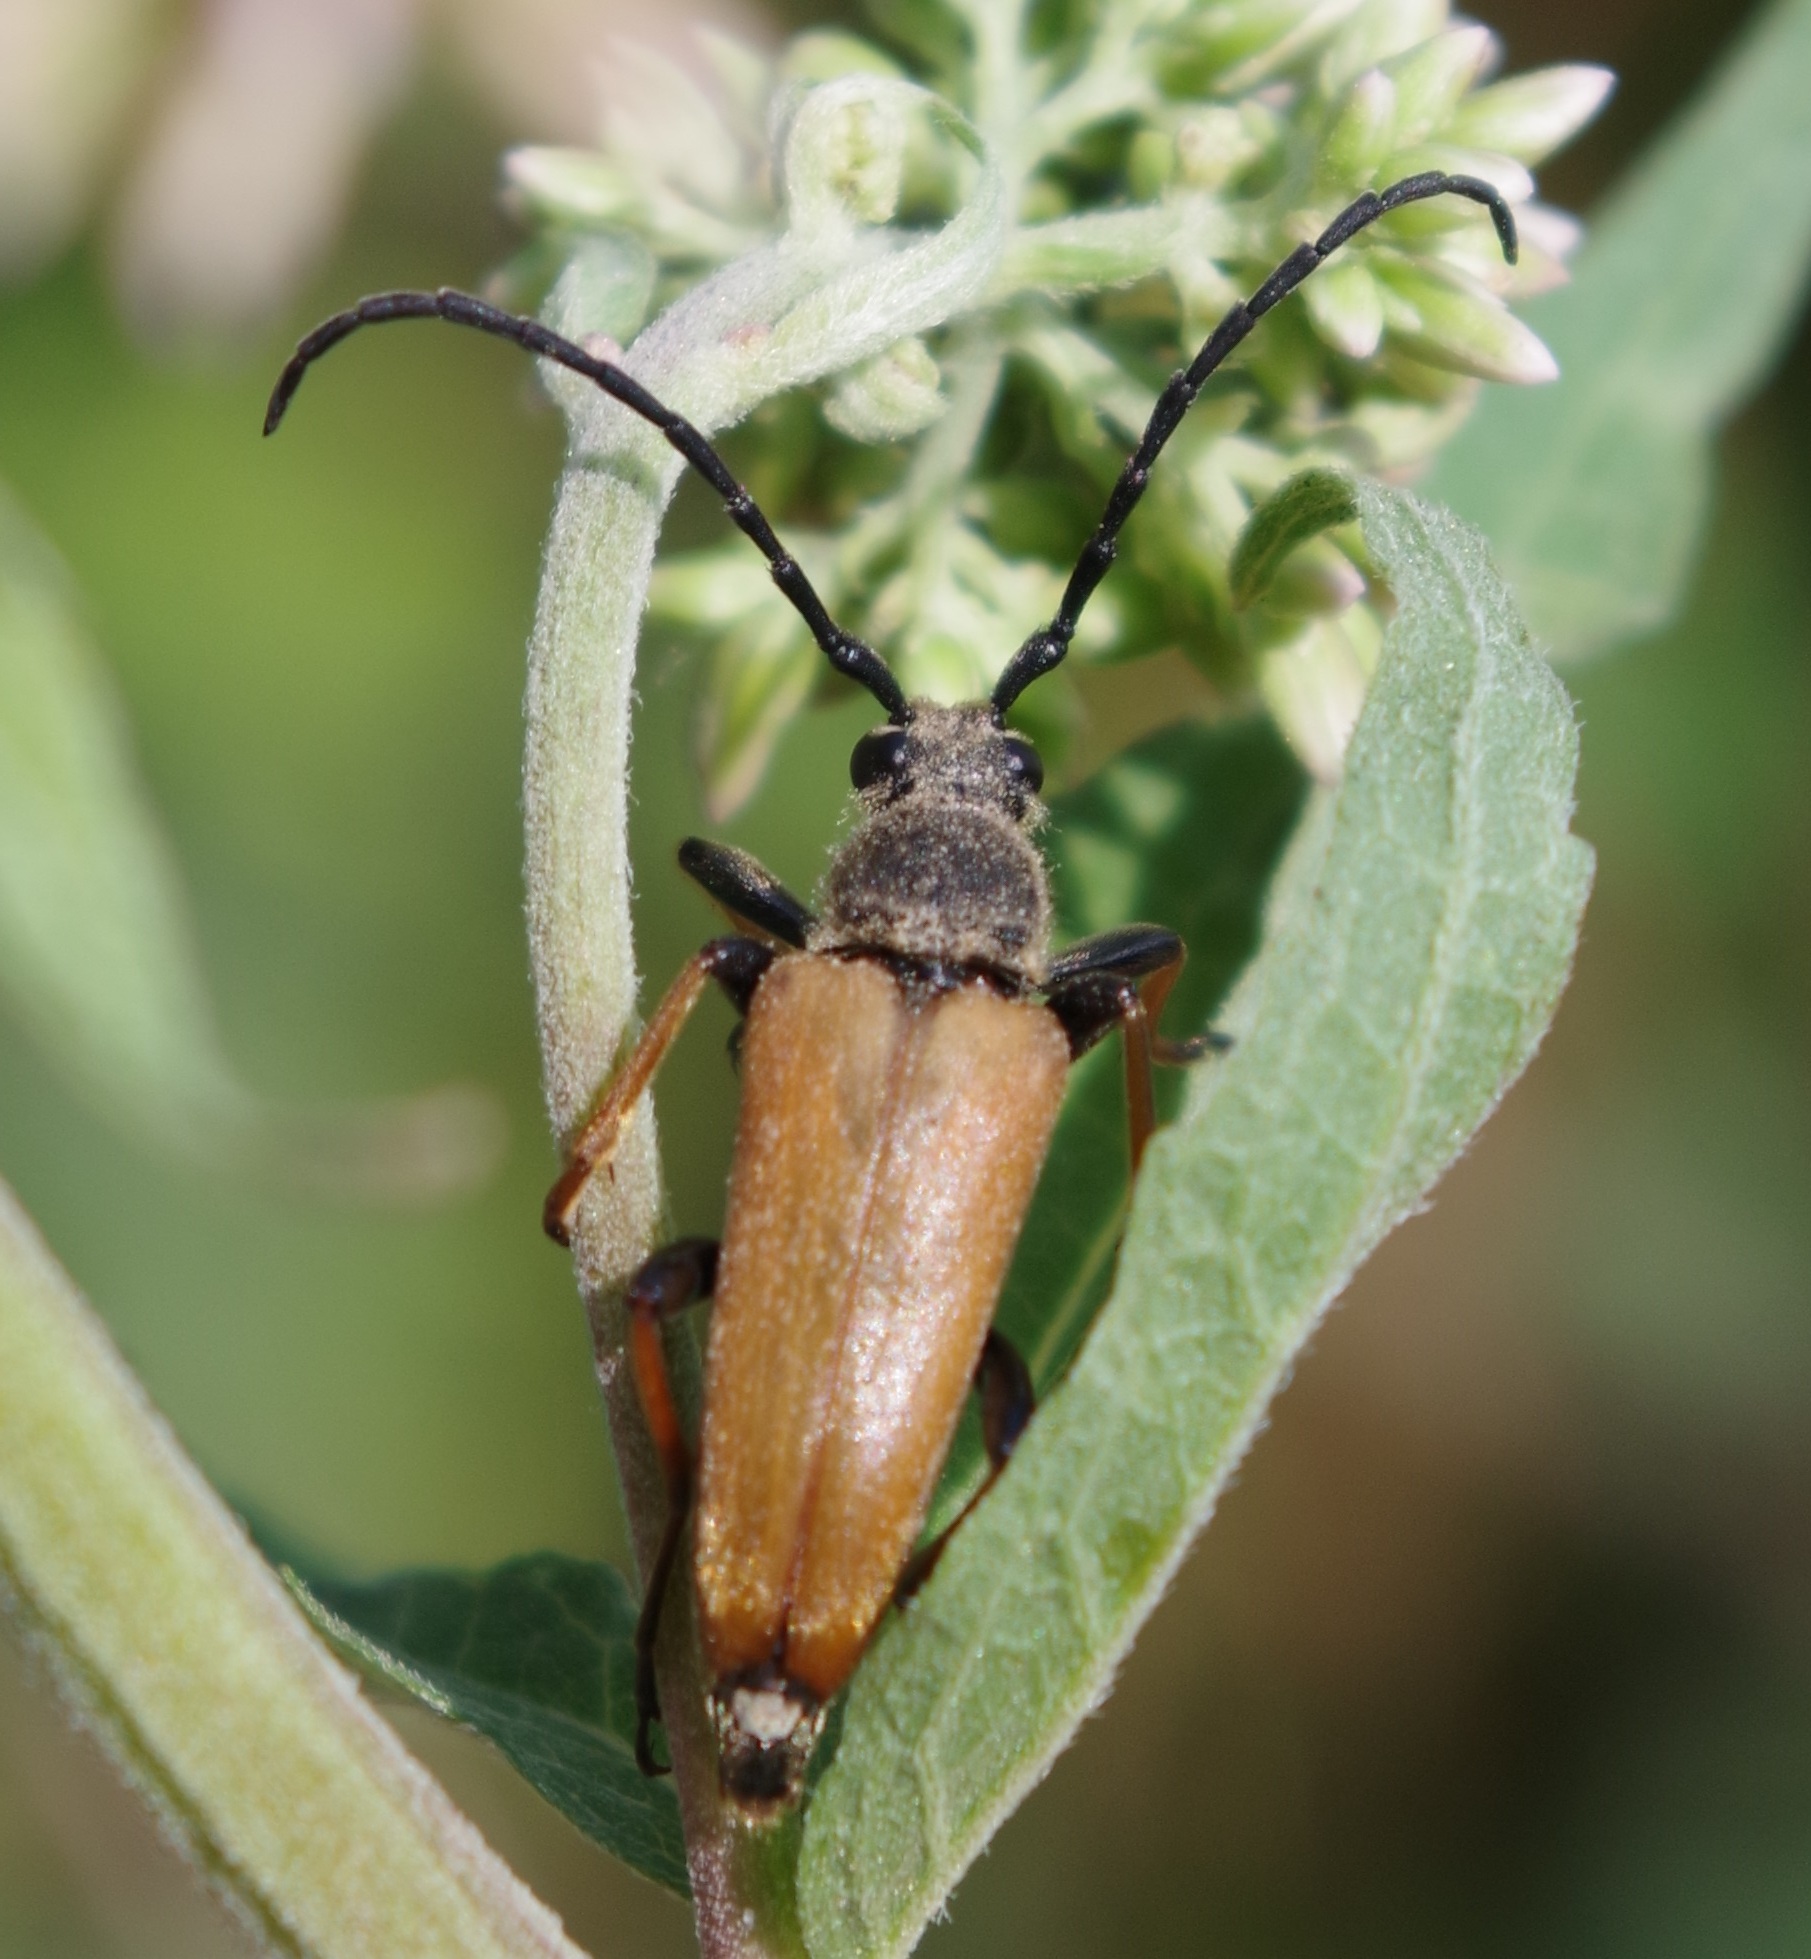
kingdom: Animalia
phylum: Arthropoda
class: Insecta
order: Coleoptera
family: Cerambycidae
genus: Stictoleptura
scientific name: Stictoleptura rubra
